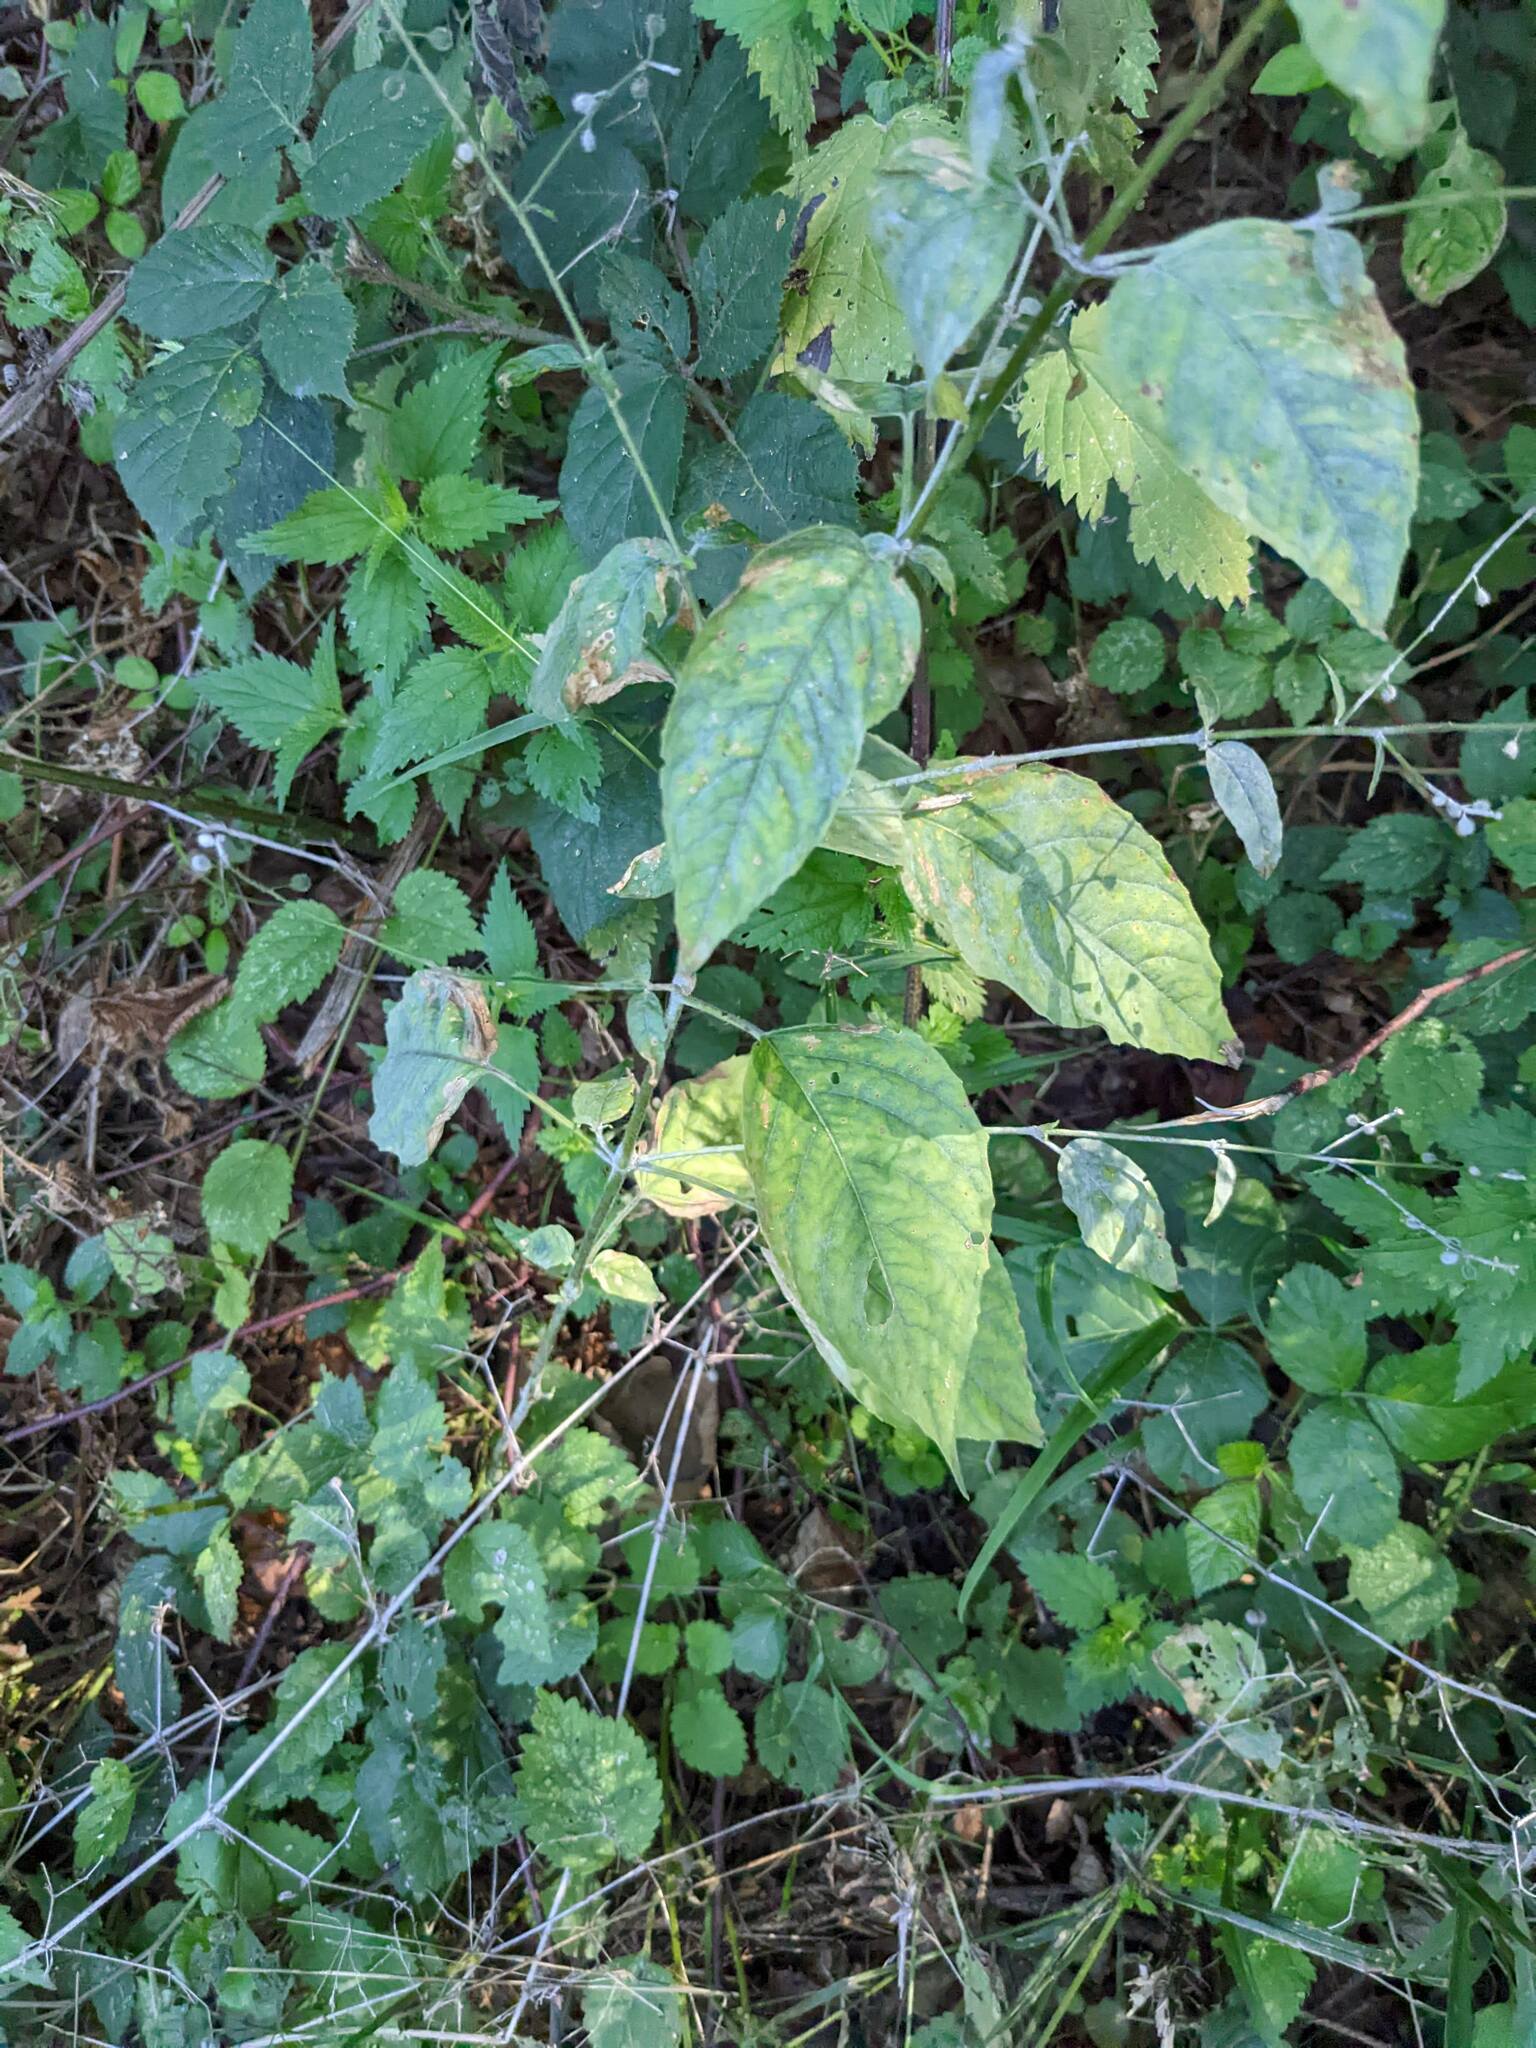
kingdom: Plantae
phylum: Tracheophyta
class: Magnoliopsida
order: Myrtales
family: Onagraceae
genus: Circaea
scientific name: Circaea lutetiana
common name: Enchanter's-nightshade
